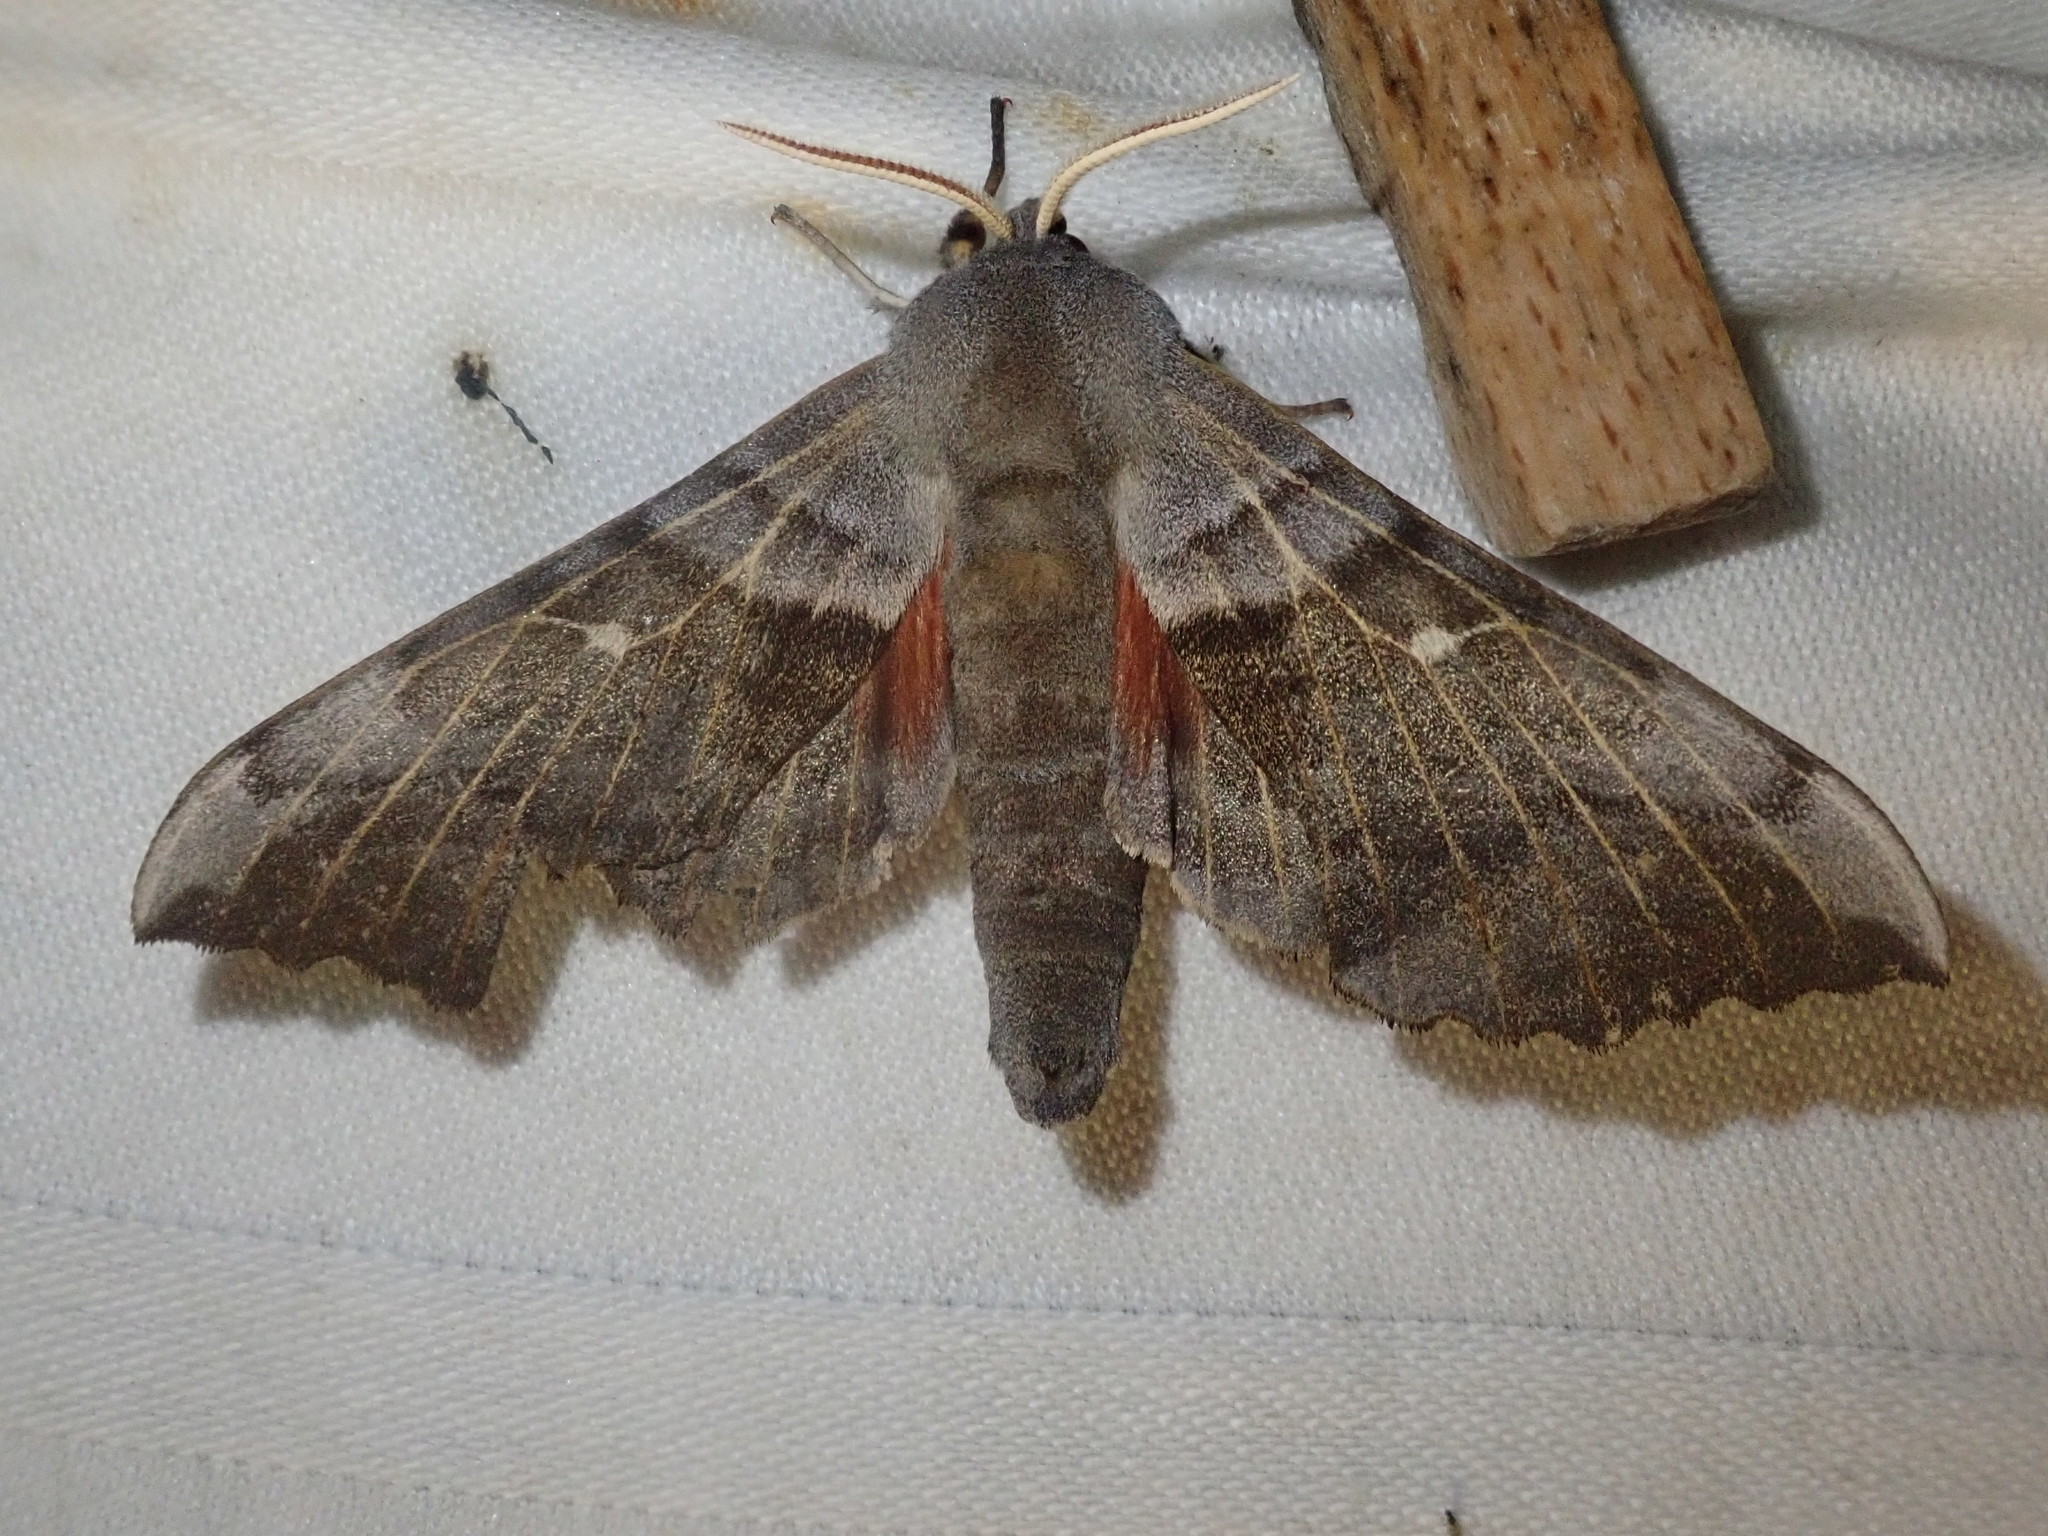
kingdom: Animalia
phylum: Arthropoda
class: Insecta
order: Lepidoptera
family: Sphingidae
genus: Laothoe
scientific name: Laothoe populi
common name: Poplar hawk-moth
